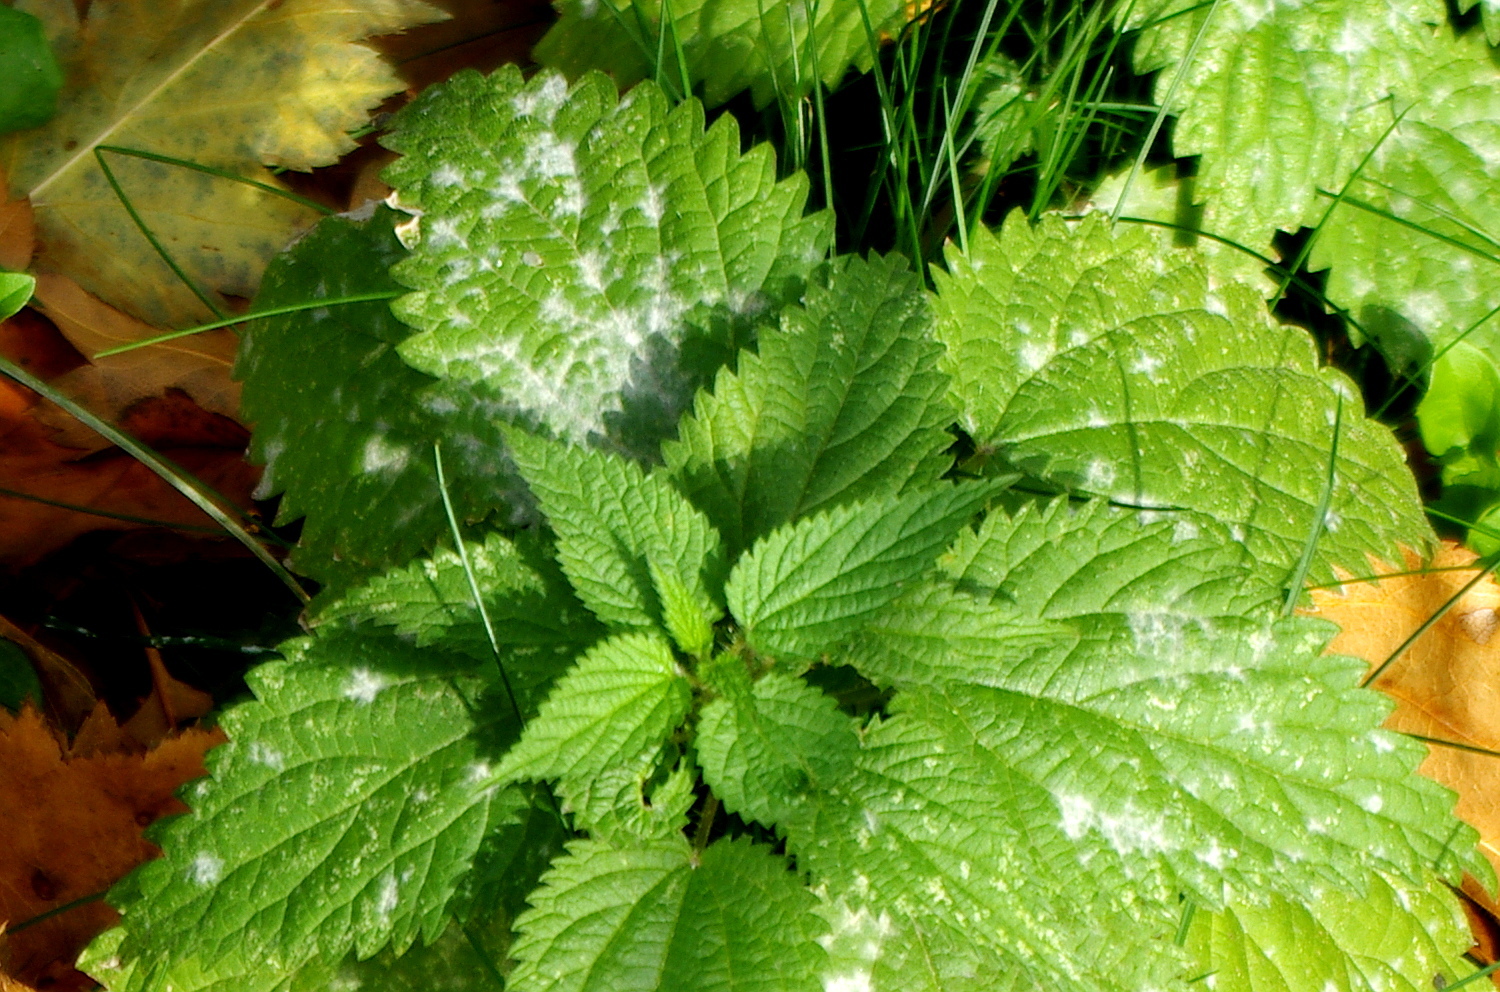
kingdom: Fungi
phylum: Ascomycota
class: Leotiomycetes
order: Helotiales
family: Erysiphaceae
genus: Erysiphe
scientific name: Erysiphe urticae
